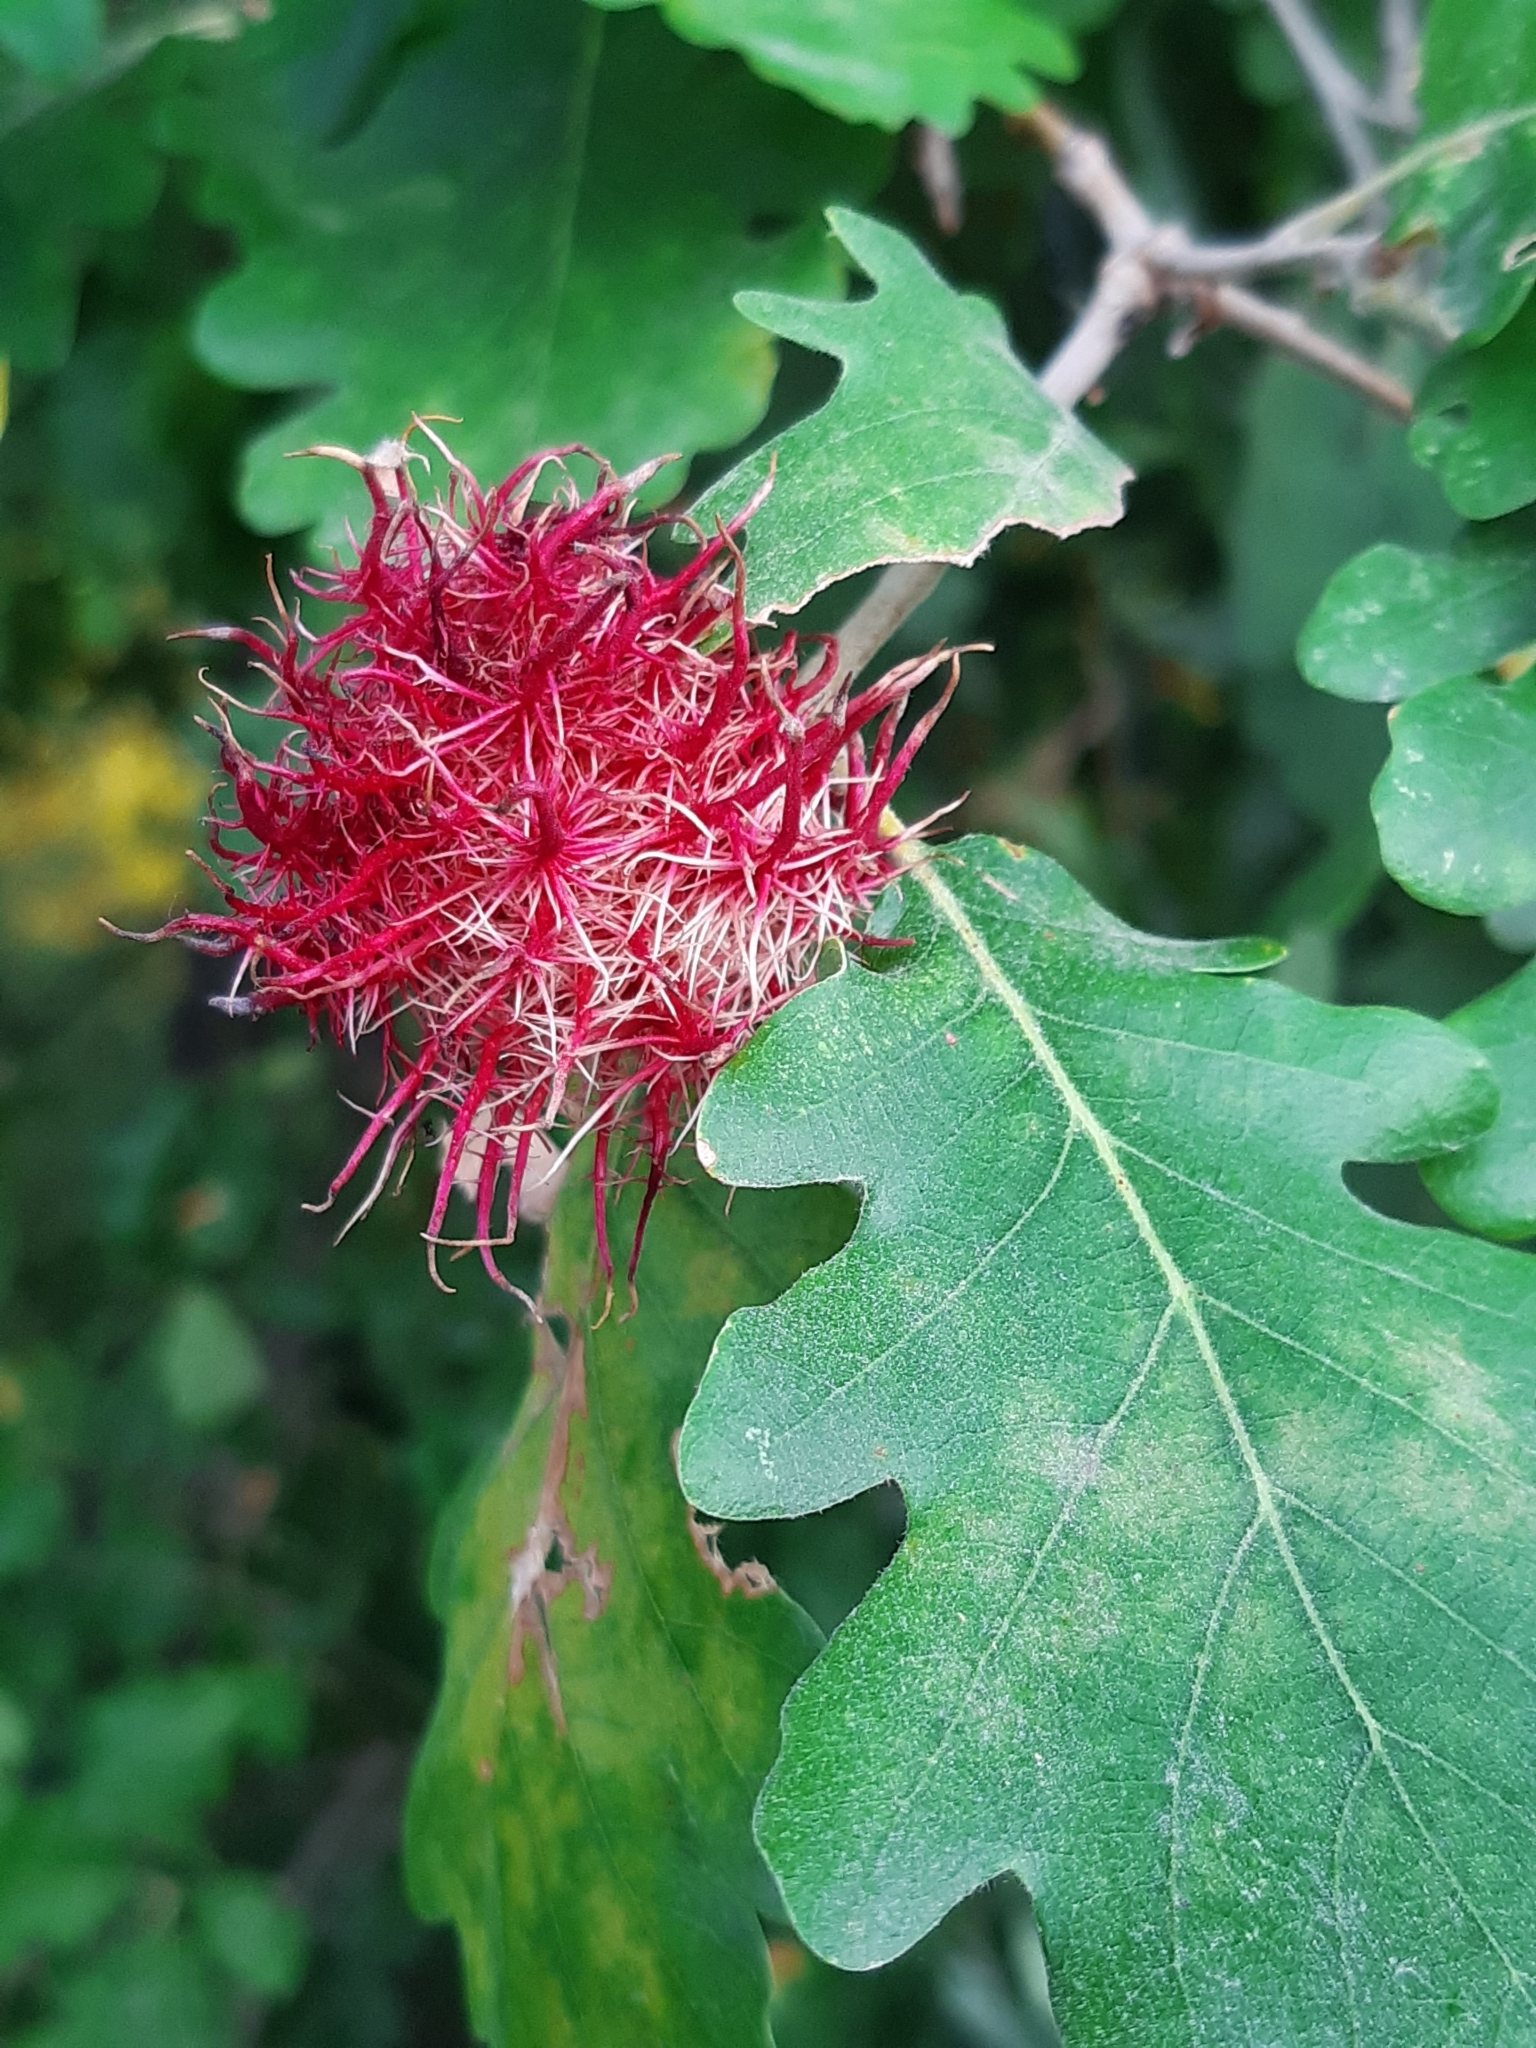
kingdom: Animalia
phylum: Arthropoda
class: Insecta
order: Hymenoptera
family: Cynipidae
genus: Andricus
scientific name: Andricus caputmedusae
